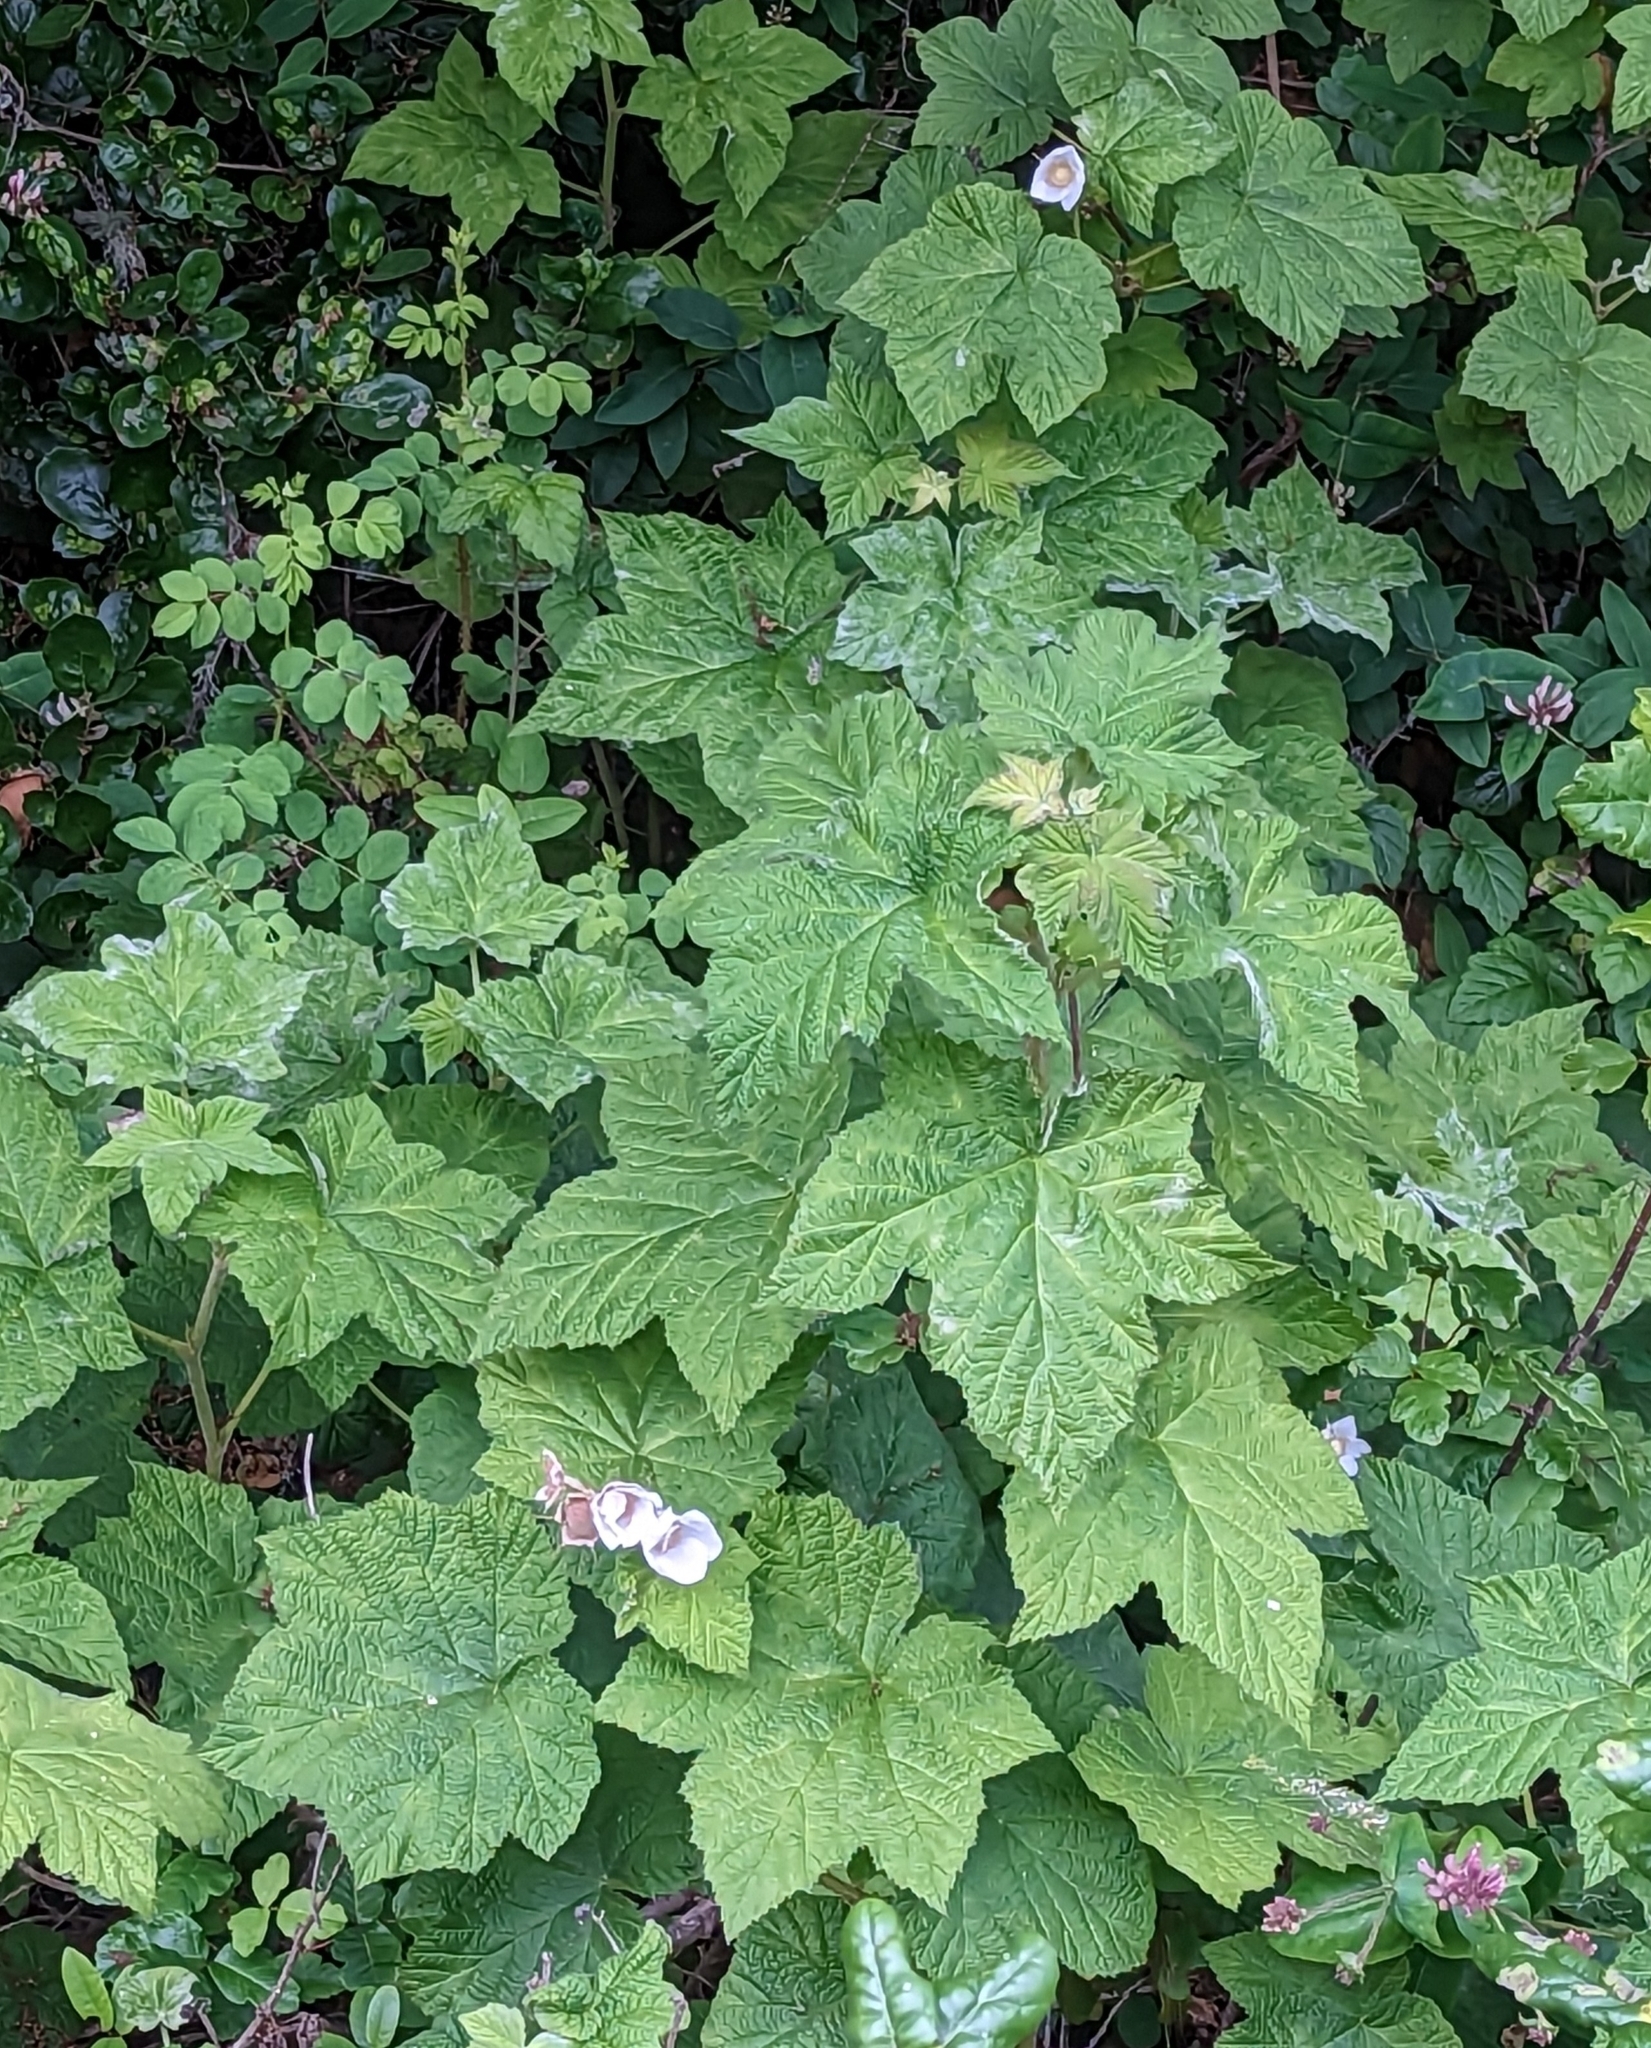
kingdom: Plantae
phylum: Tracheophyta
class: Magnoliopsida
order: Rosales
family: Rosaceae
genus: Rubus
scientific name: Rubus parviflorus
